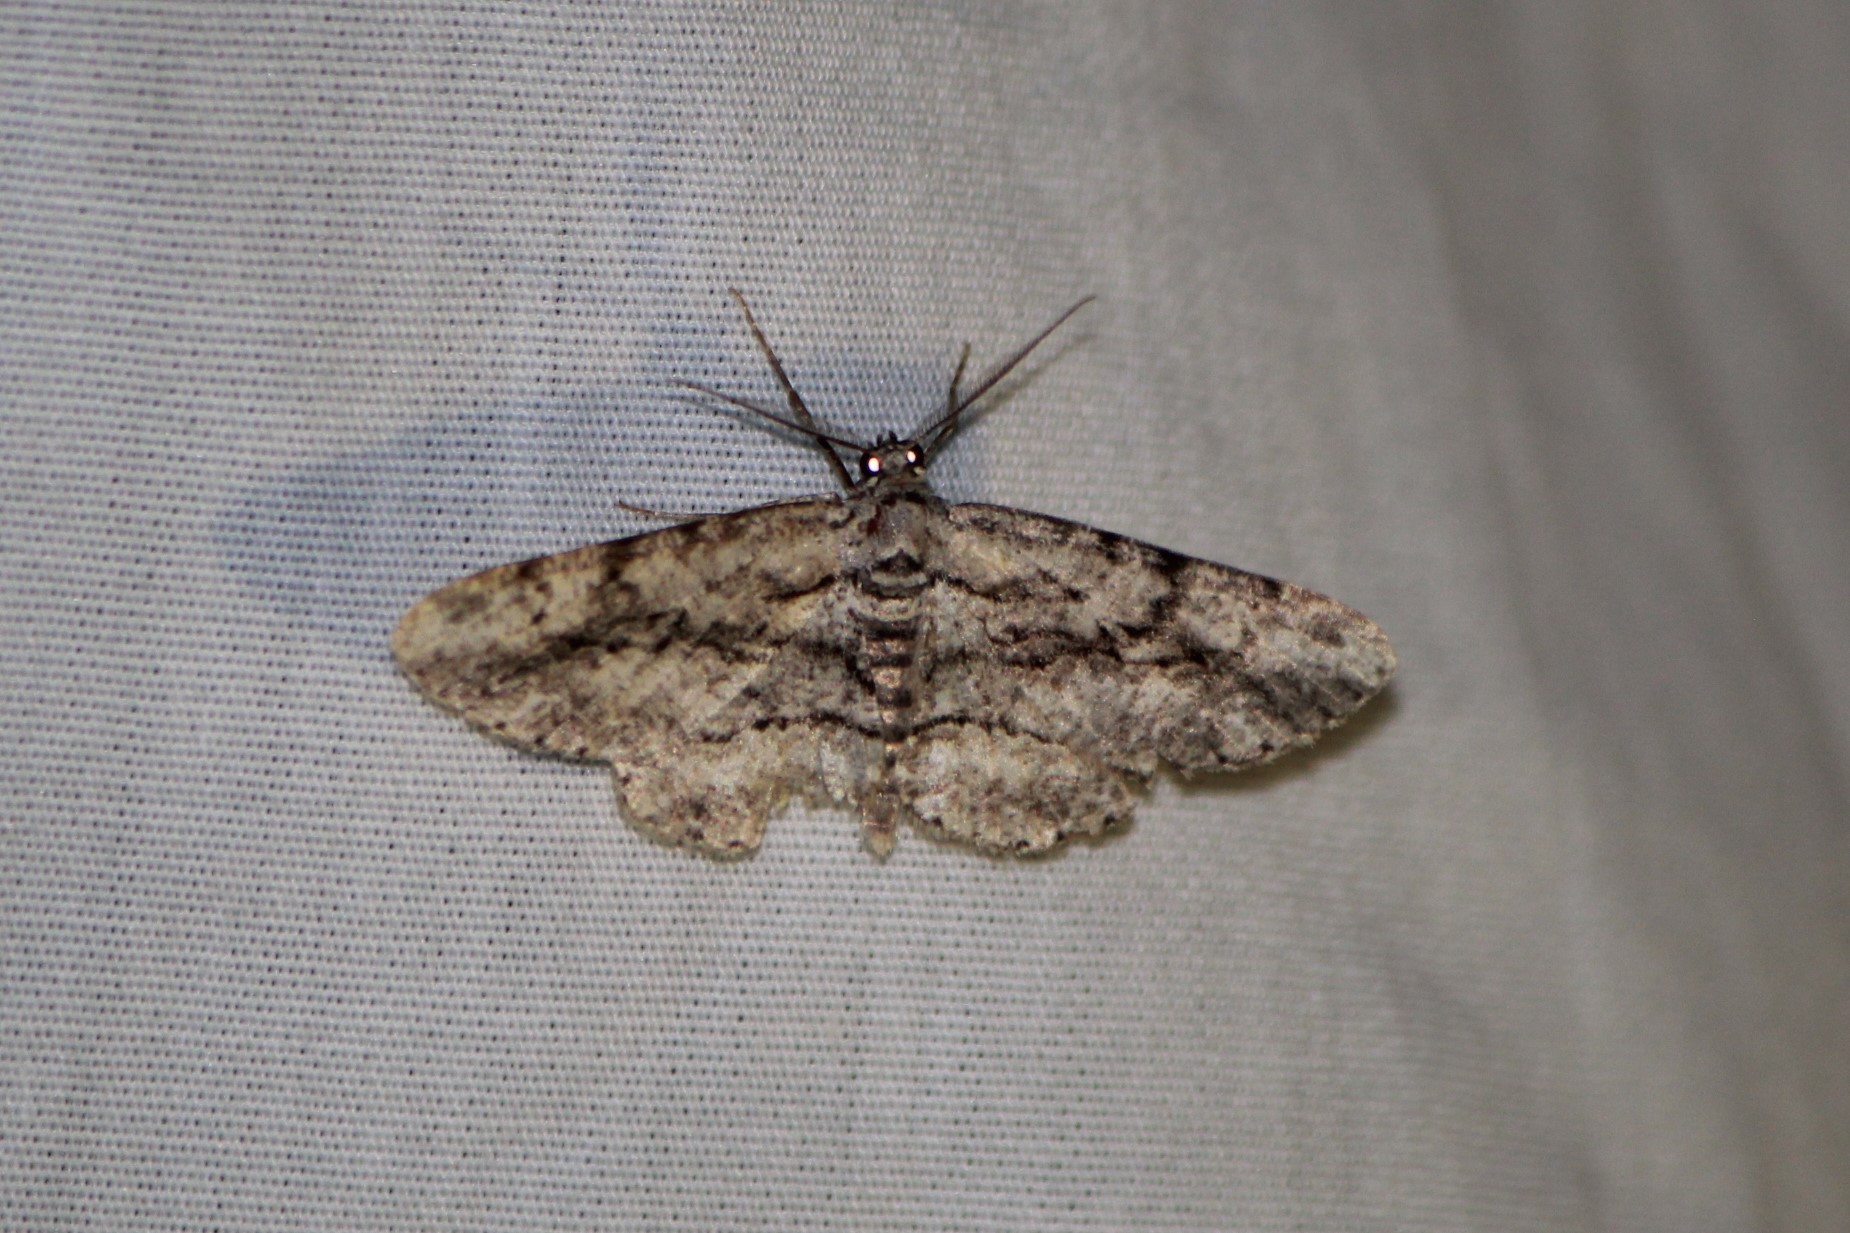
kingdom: Animalia
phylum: Arthropoda
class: Insecta
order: Lepidoptera
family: Geometridae
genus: Anavitrinella
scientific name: Anavitrinella pampinaria
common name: Common gray
